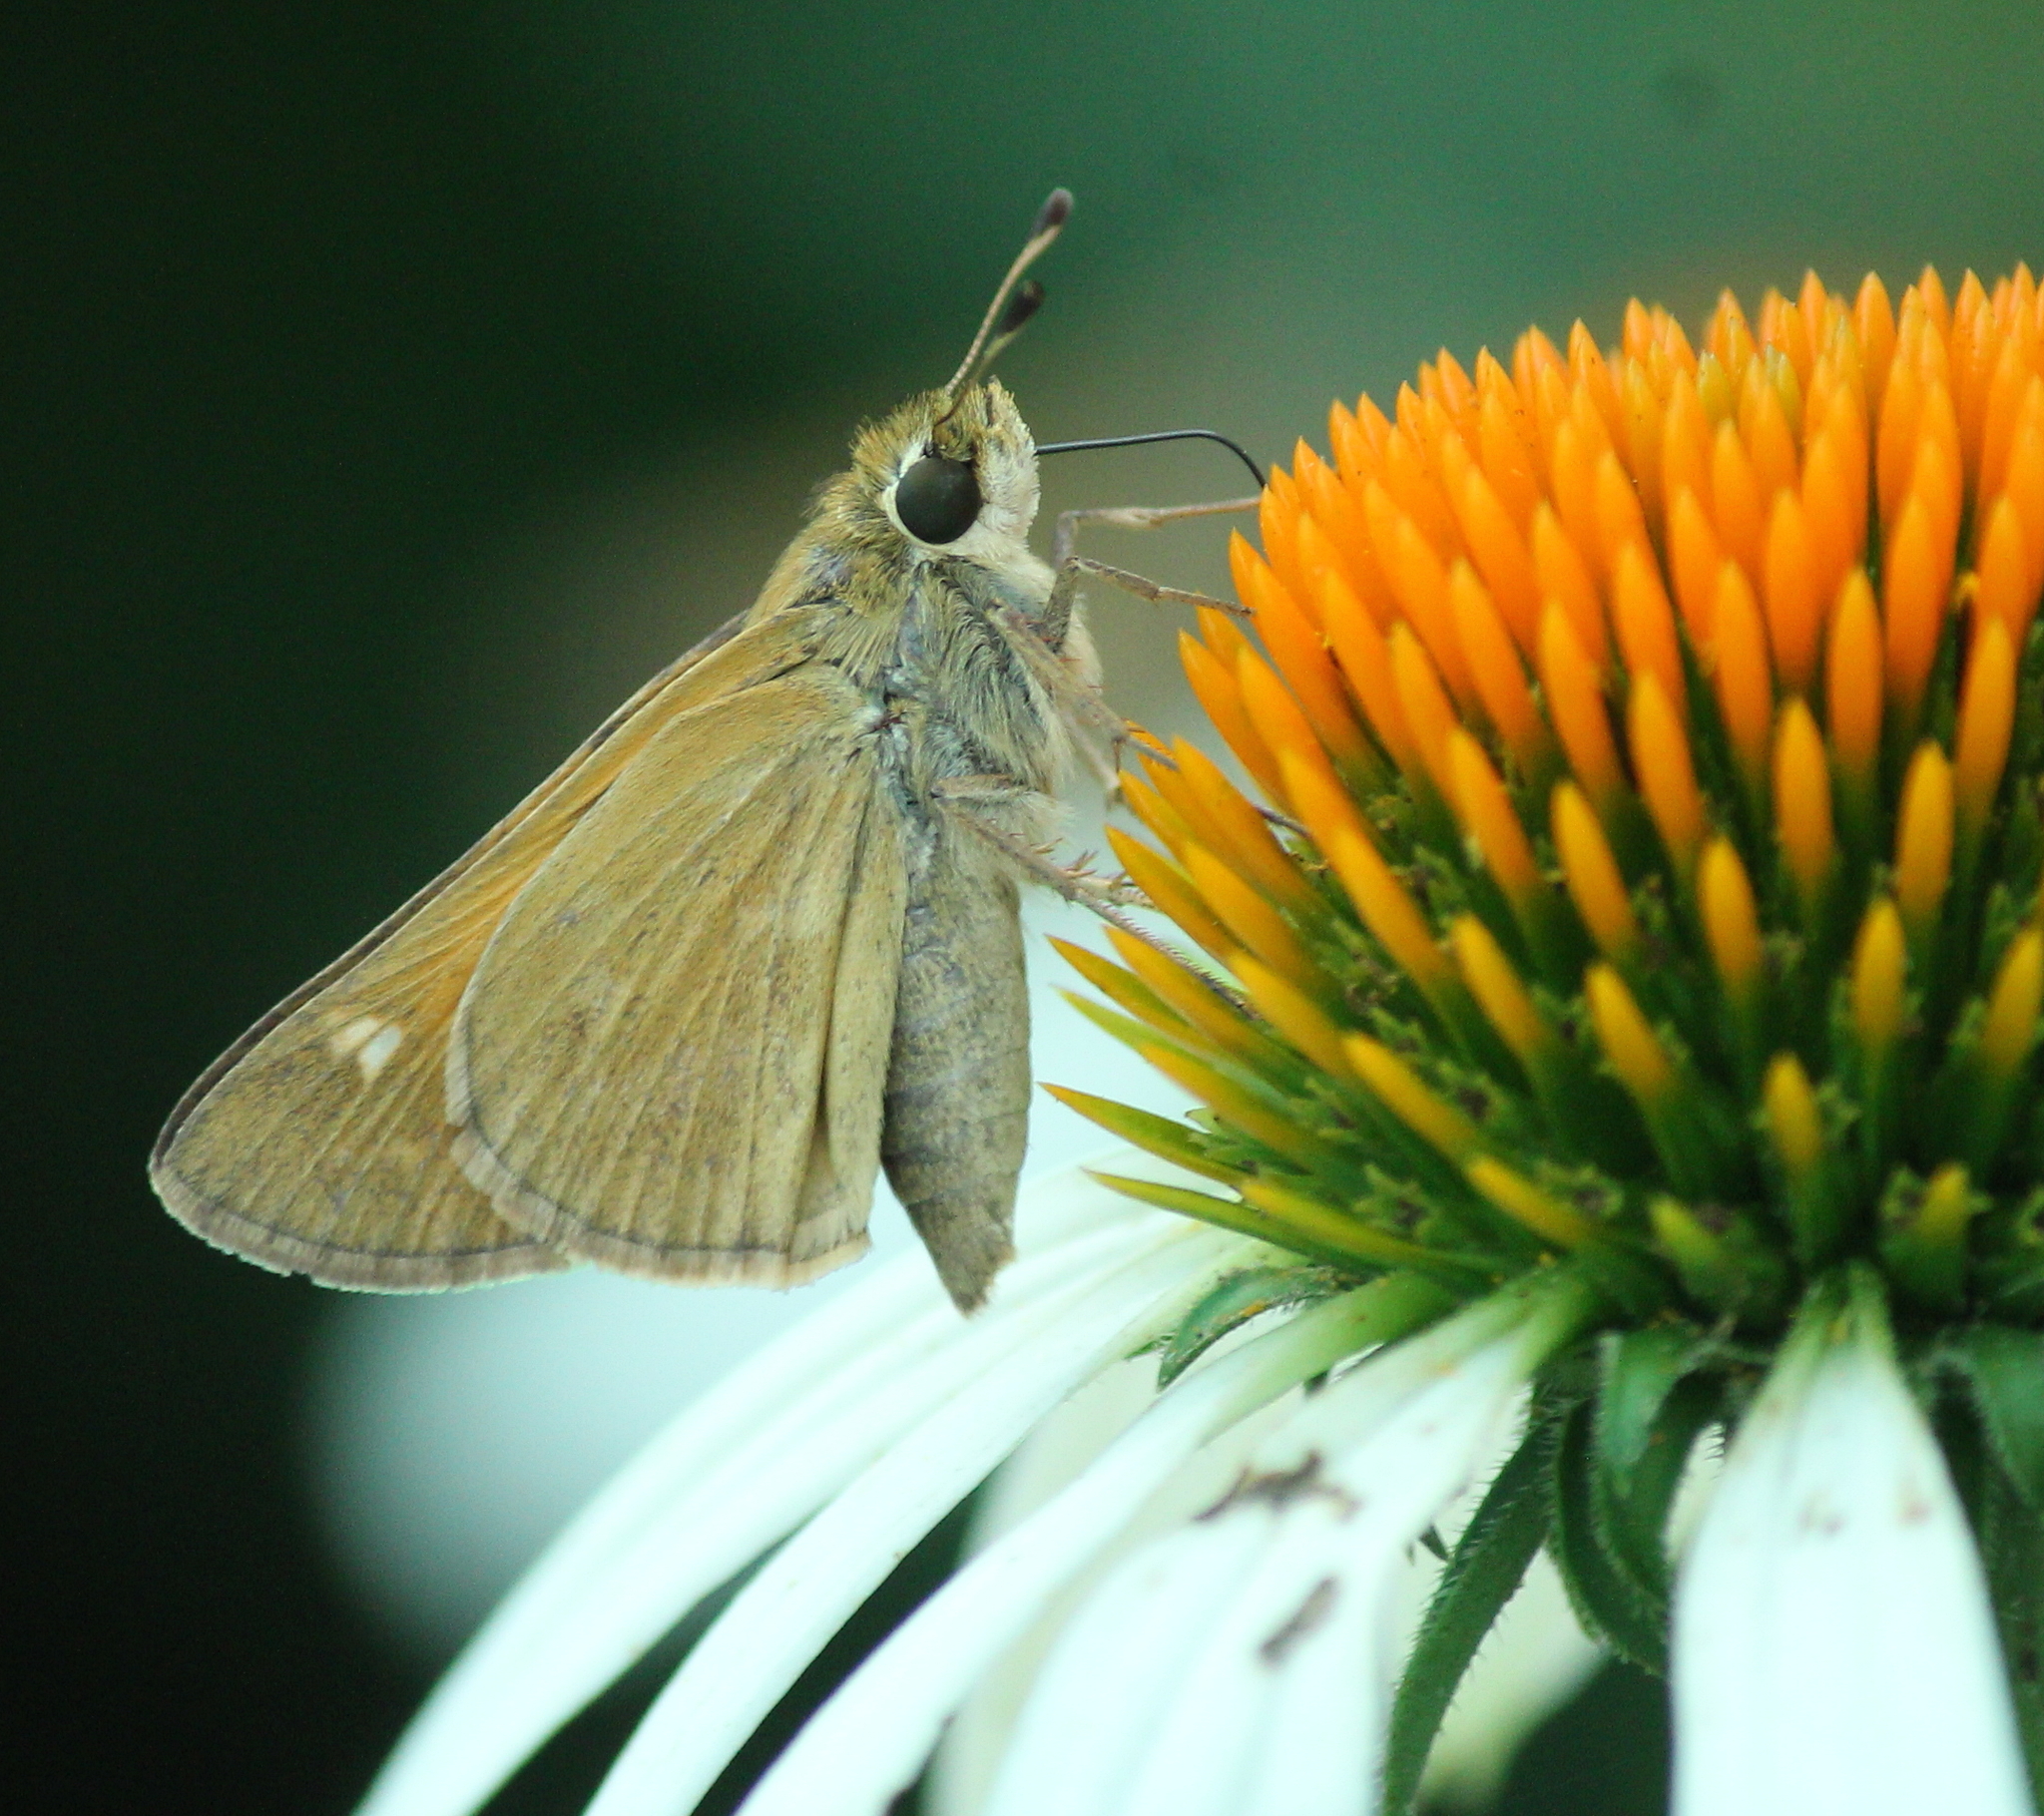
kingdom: Animalia
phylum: Arthropoda
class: Insecta
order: Lepidoptera
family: Hesperiidae
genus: Atalopedes
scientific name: Atalopedes
